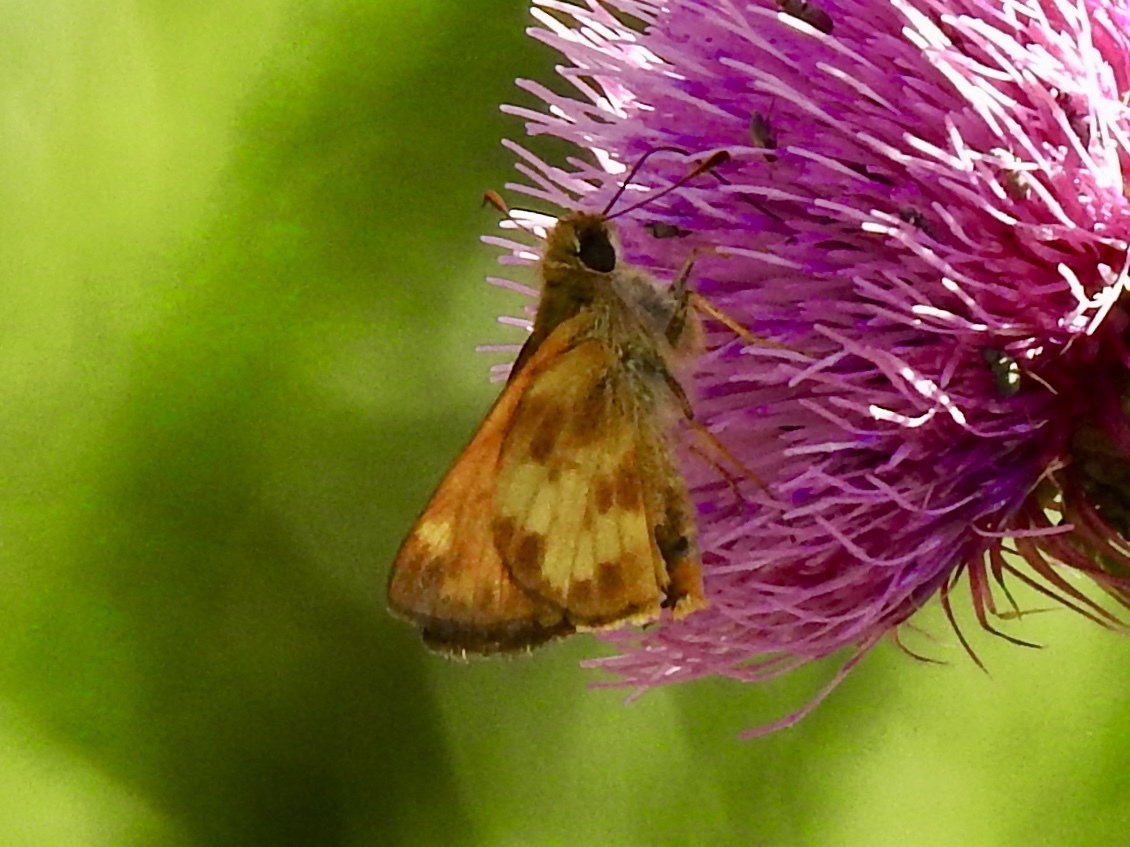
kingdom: Animalia
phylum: Arthropoda
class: Insecta
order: Lepidoptera
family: Hesperiidae
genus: Lon
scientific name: Lon taxiles
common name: Taxiles skipper
